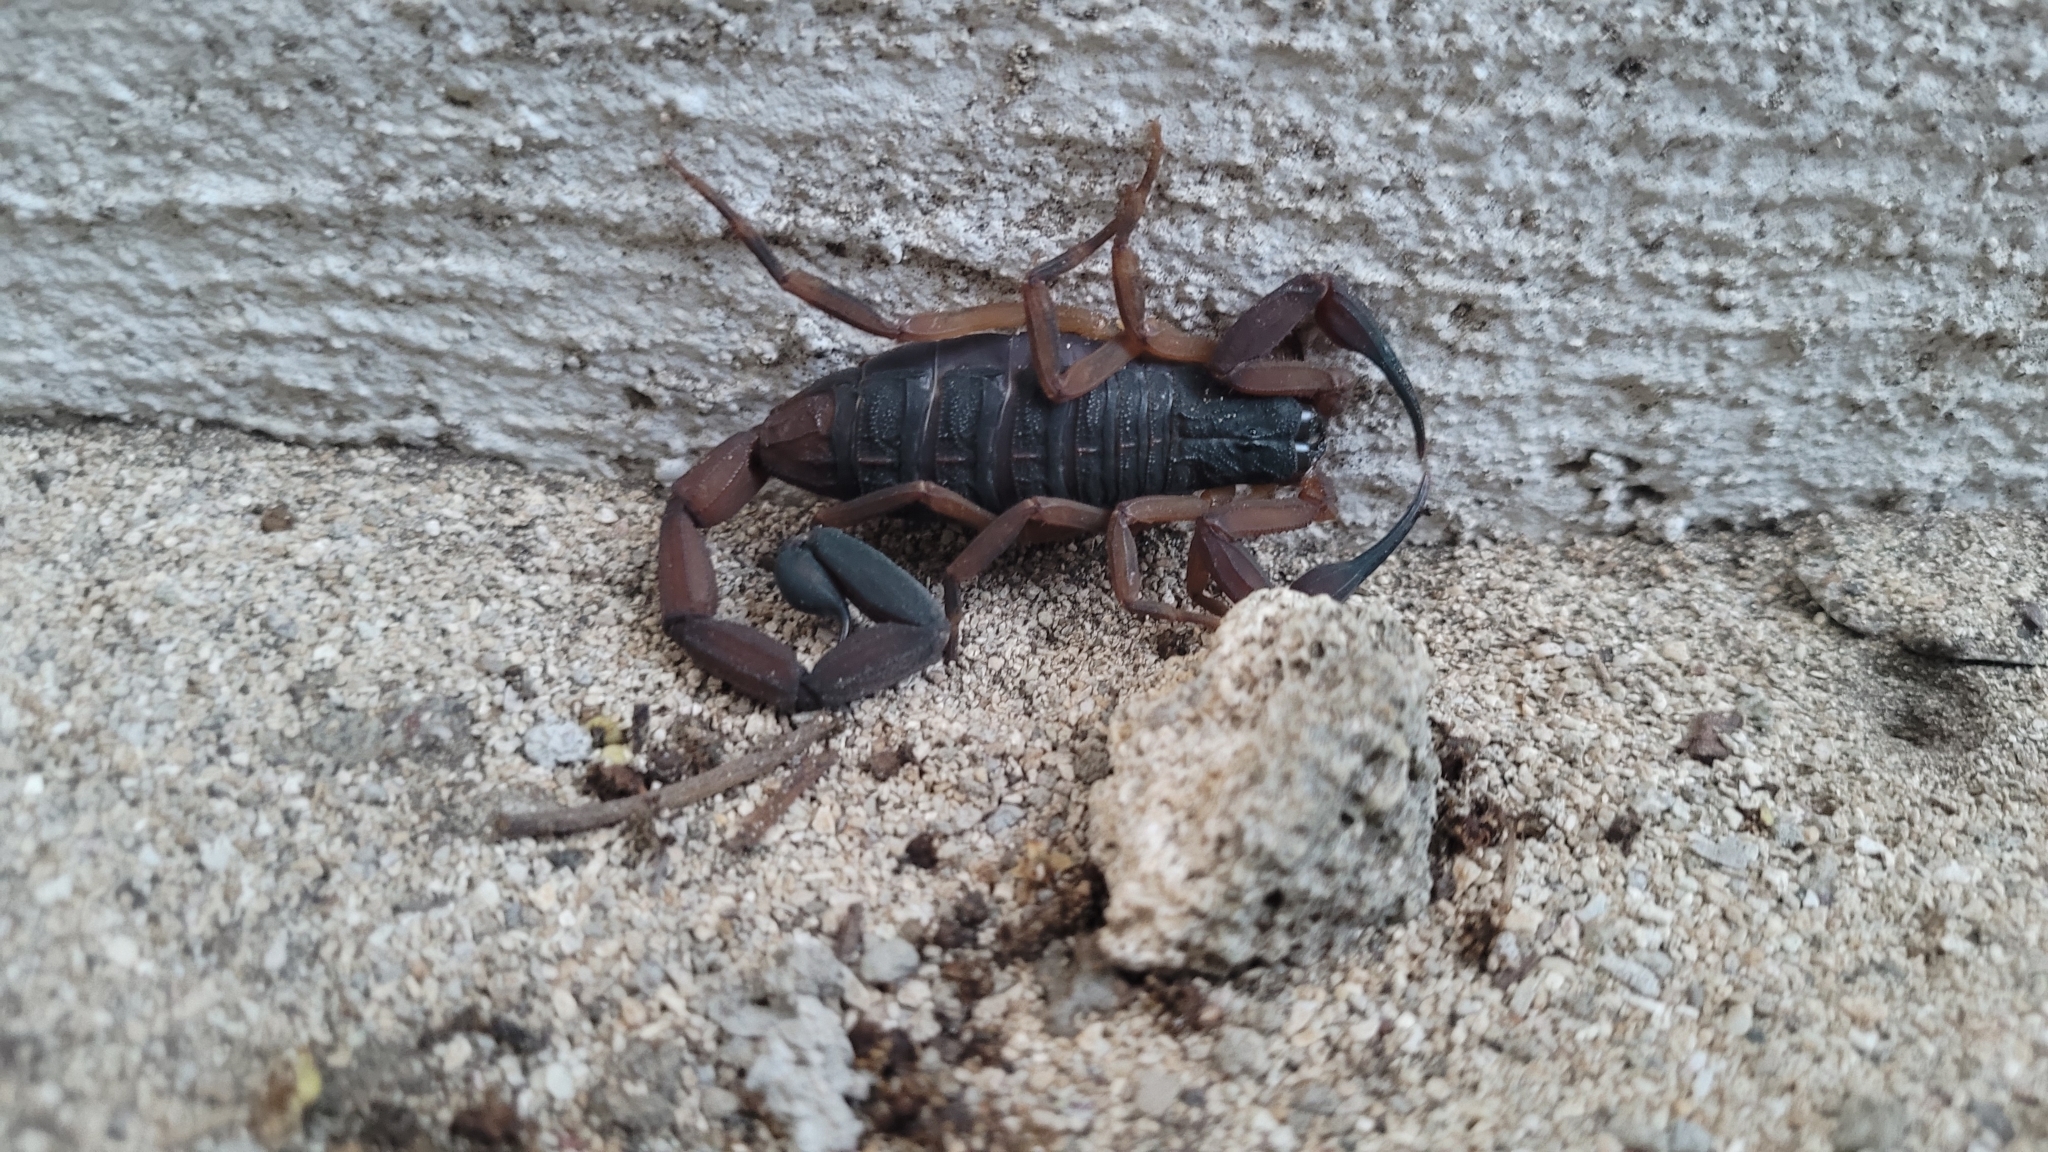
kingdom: Animalia
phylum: Arthropoda
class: Arachnida
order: Scorpiones
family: Buthidae
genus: Centruroides
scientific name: Centruroides gracilis
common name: Scorpions
